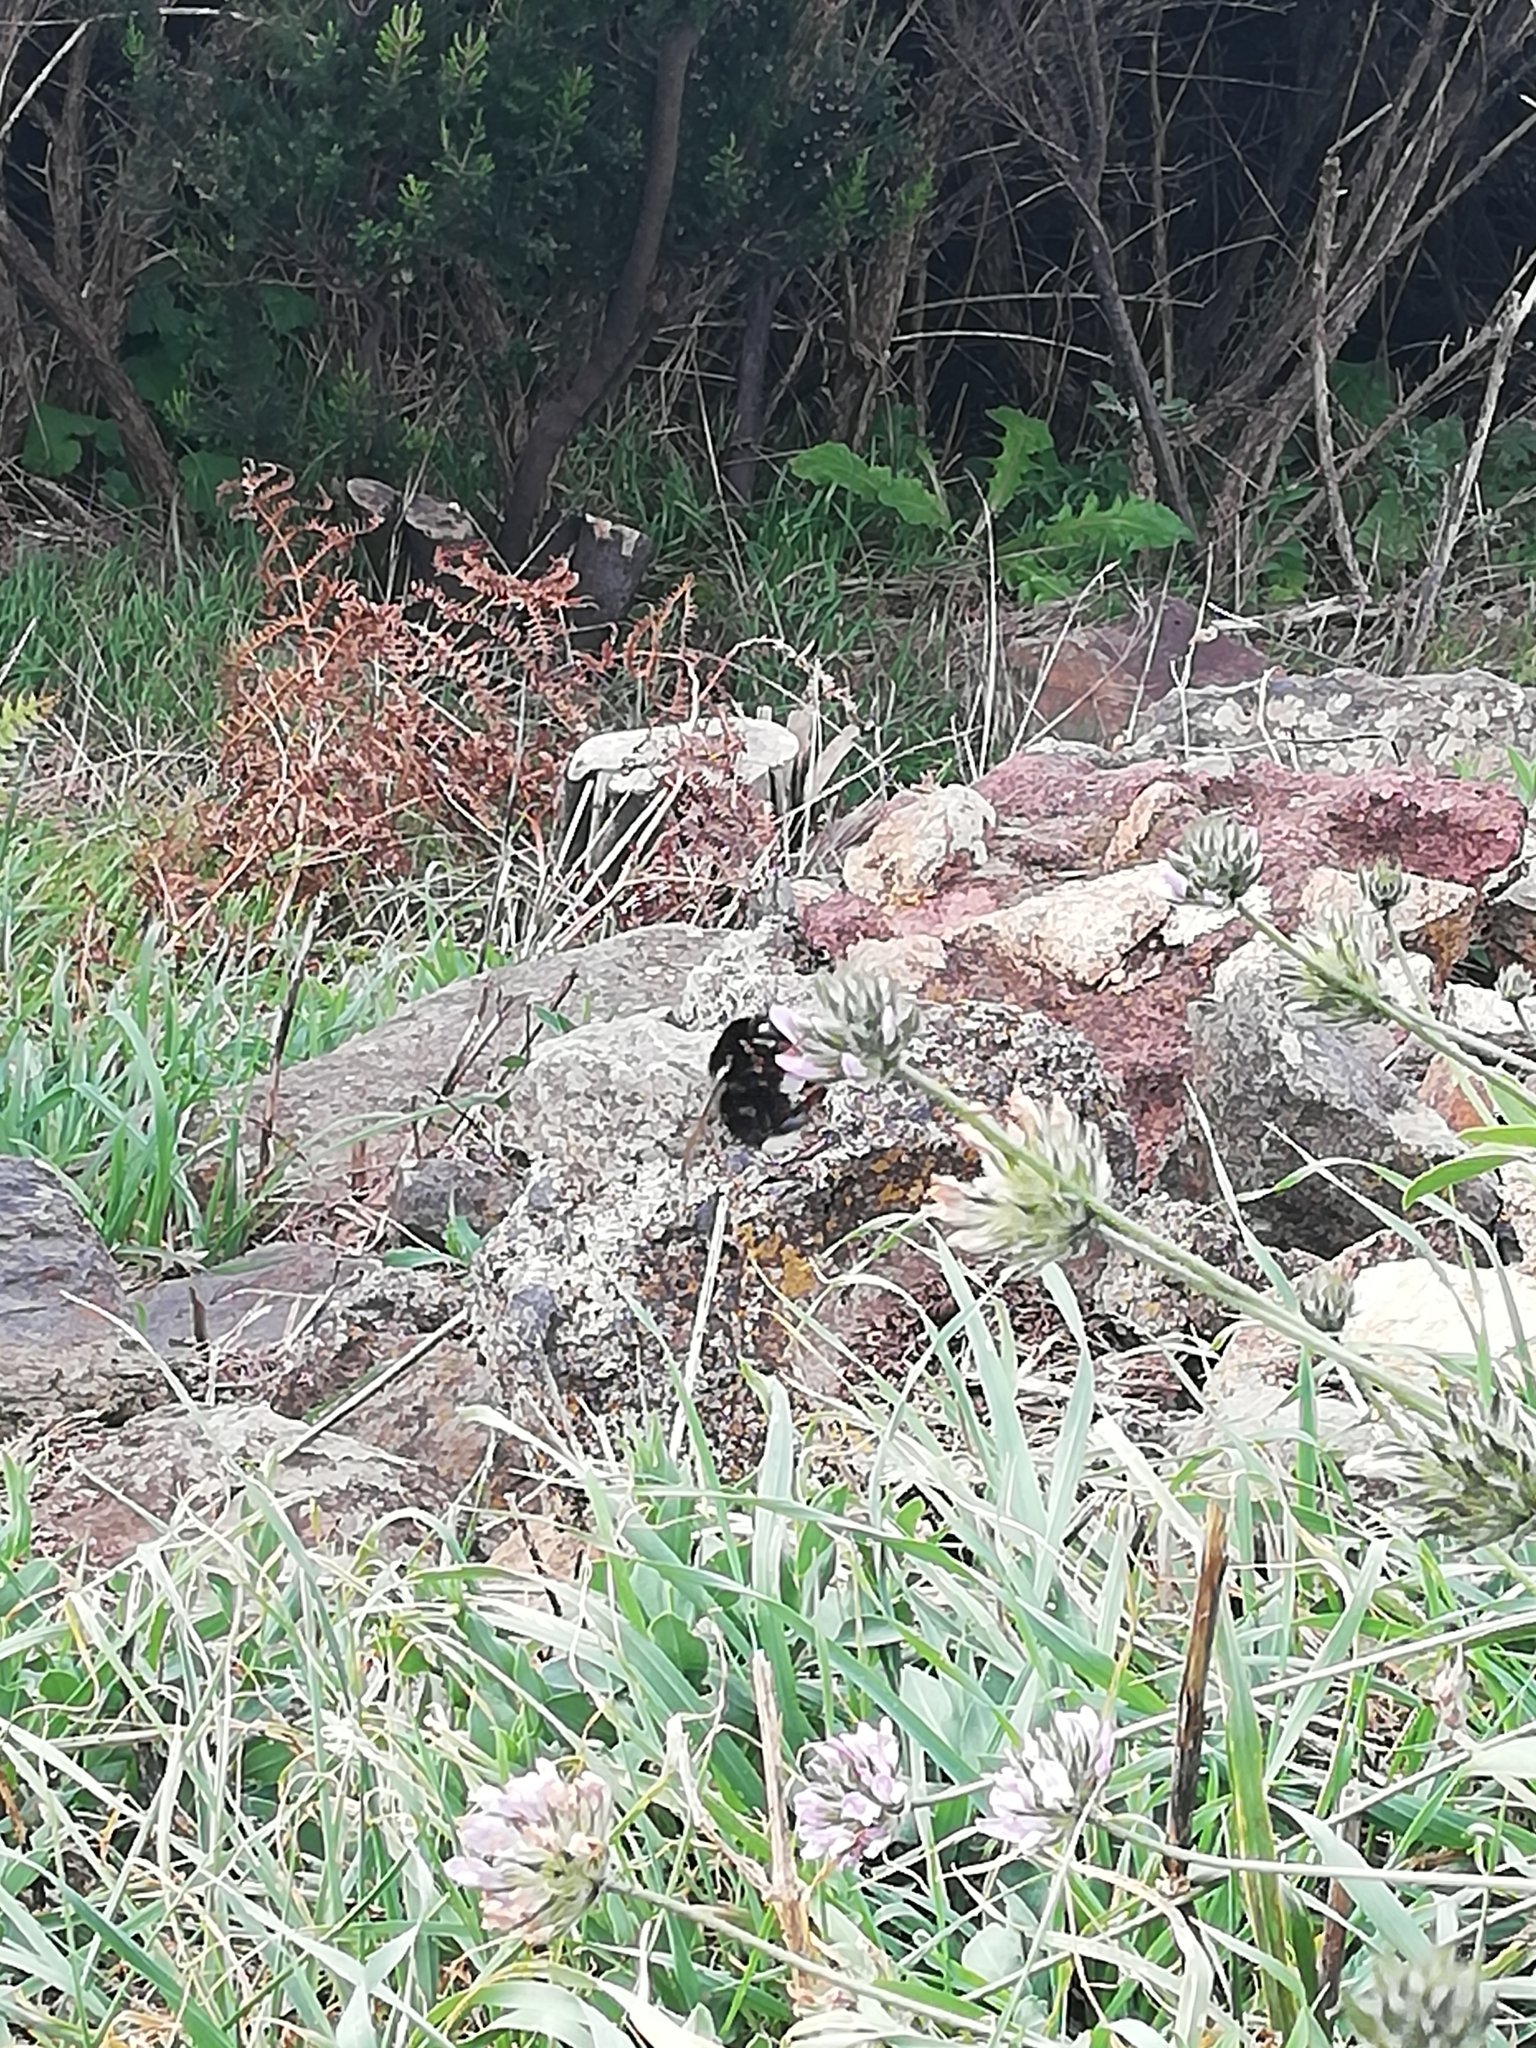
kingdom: Animalia
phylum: Arthropoda
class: Insecta
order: Hymenoptera
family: Apidae
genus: Bombus
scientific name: Bombus terrestris
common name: Buff-tailed bumblebee
